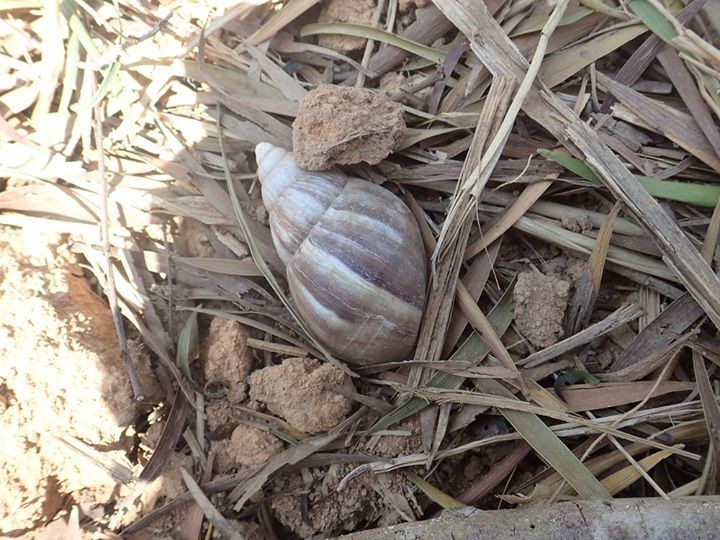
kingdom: Animalia
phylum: Mollusca
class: Gastropoda
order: Stylommatophora
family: Achatinidae
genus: Lissachatina
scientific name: Lissachatina fulica
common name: Giant african snail
